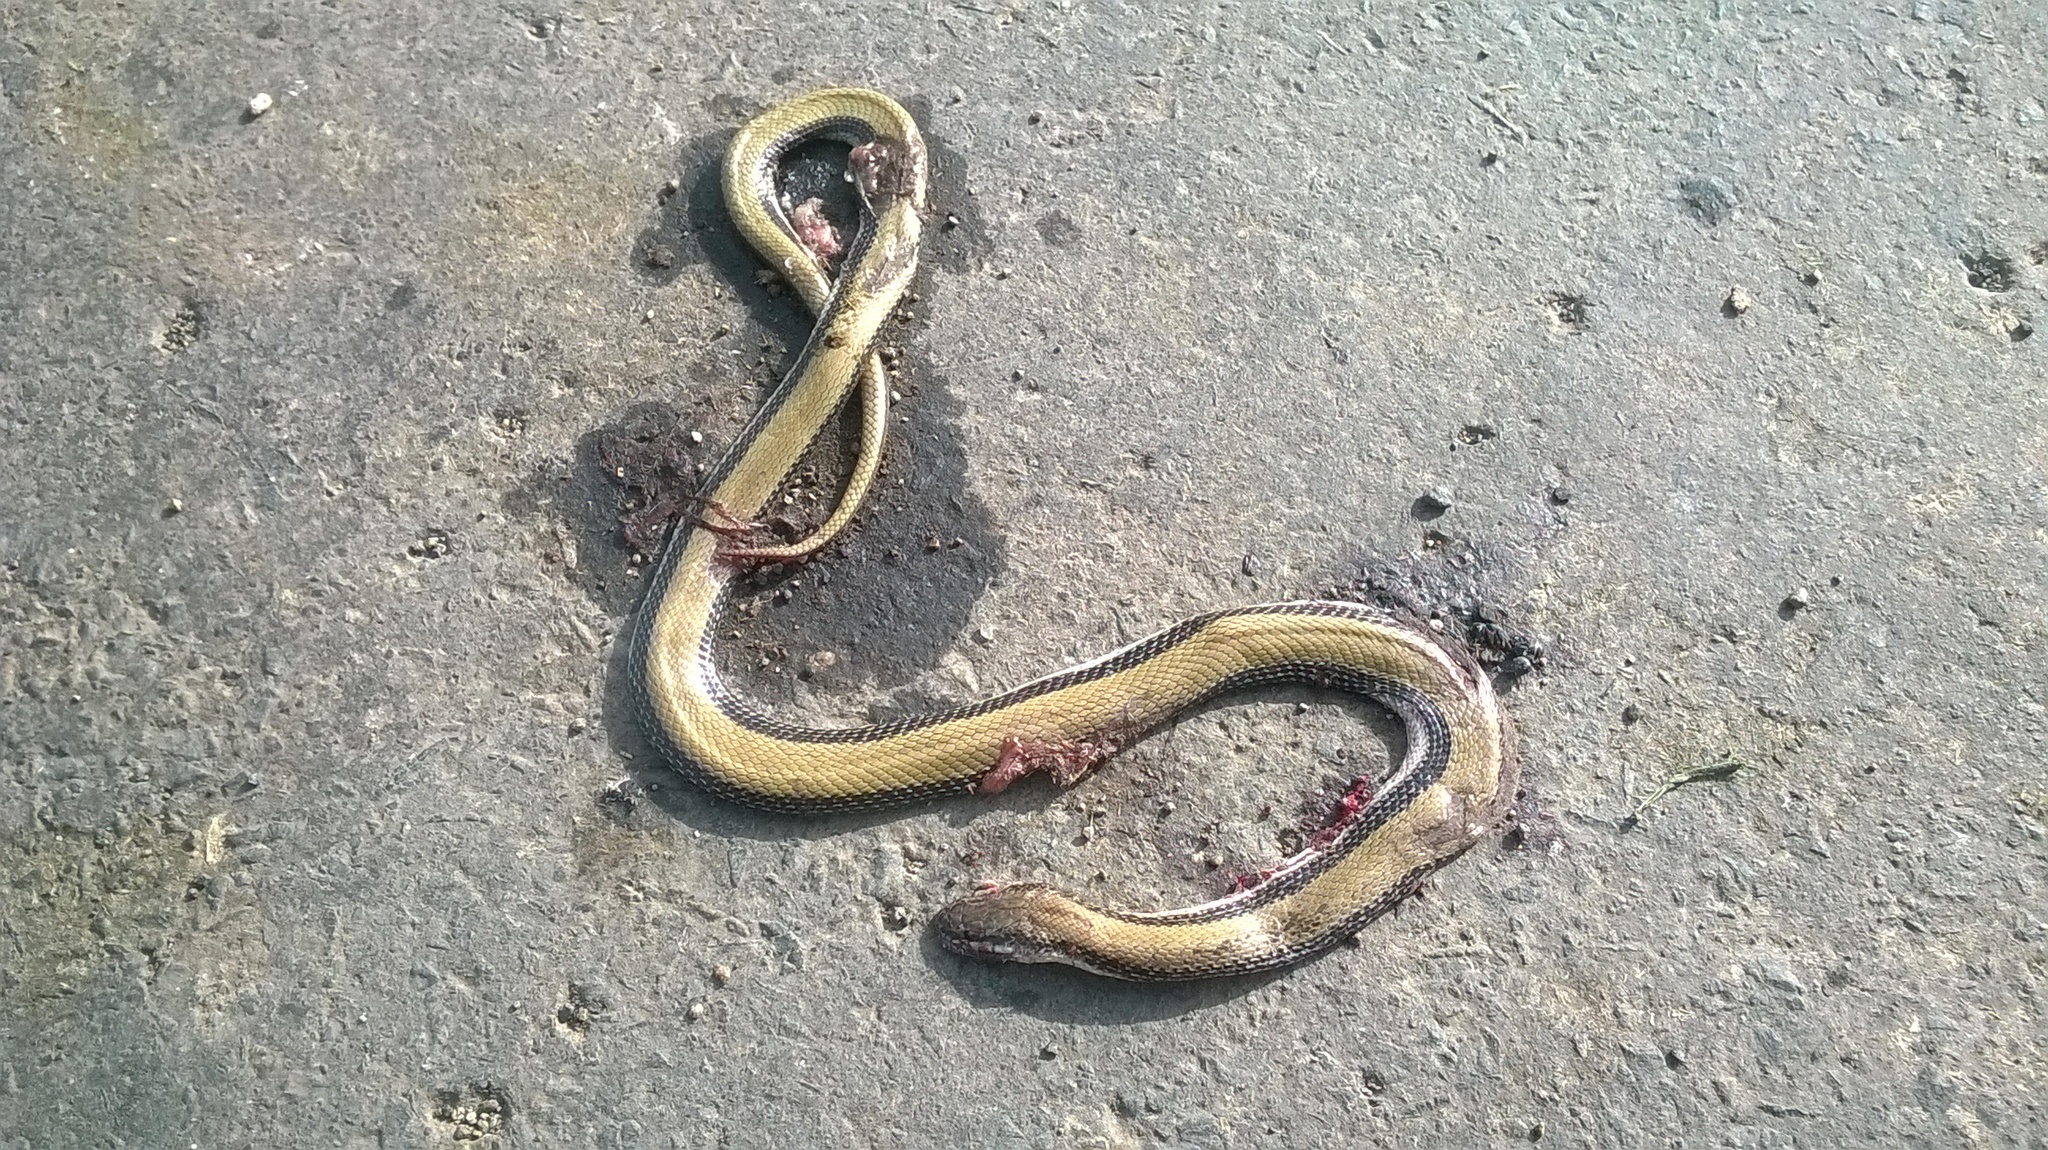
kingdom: Animalia
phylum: Chordata
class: Squamata
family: Colubridae
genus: Wallaceophis
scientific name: Wallaceophis gujaratensis
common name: Wallace’s racer
